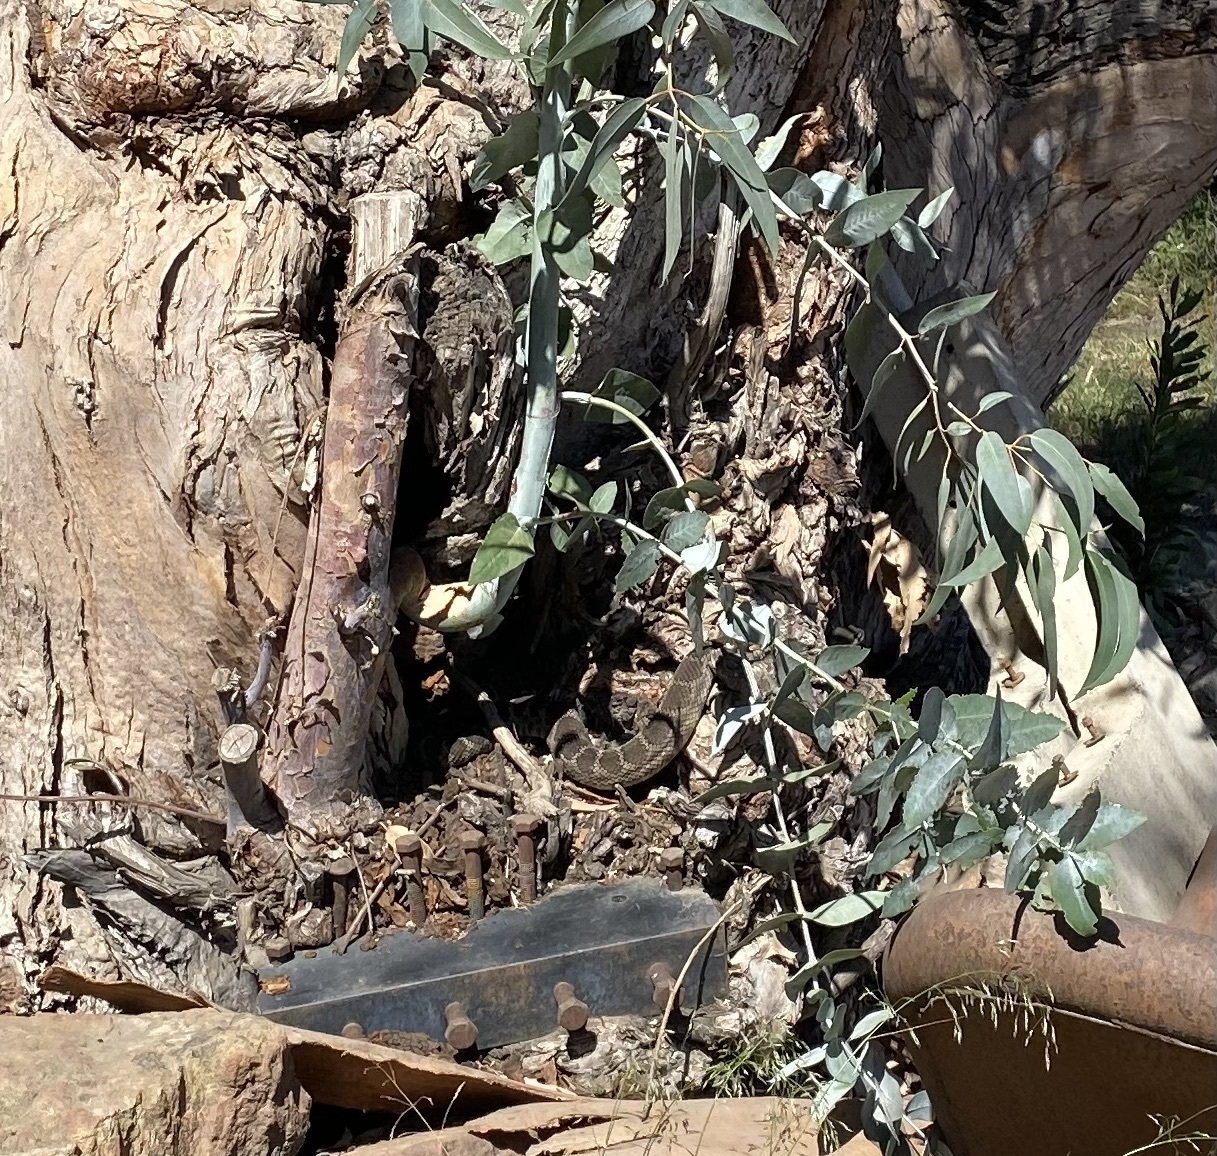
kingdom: Animalia
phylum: Chordata
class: Squamata
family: Viperidae
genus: Crotalus
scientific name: Crotalus oreganus
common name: Abyssus
